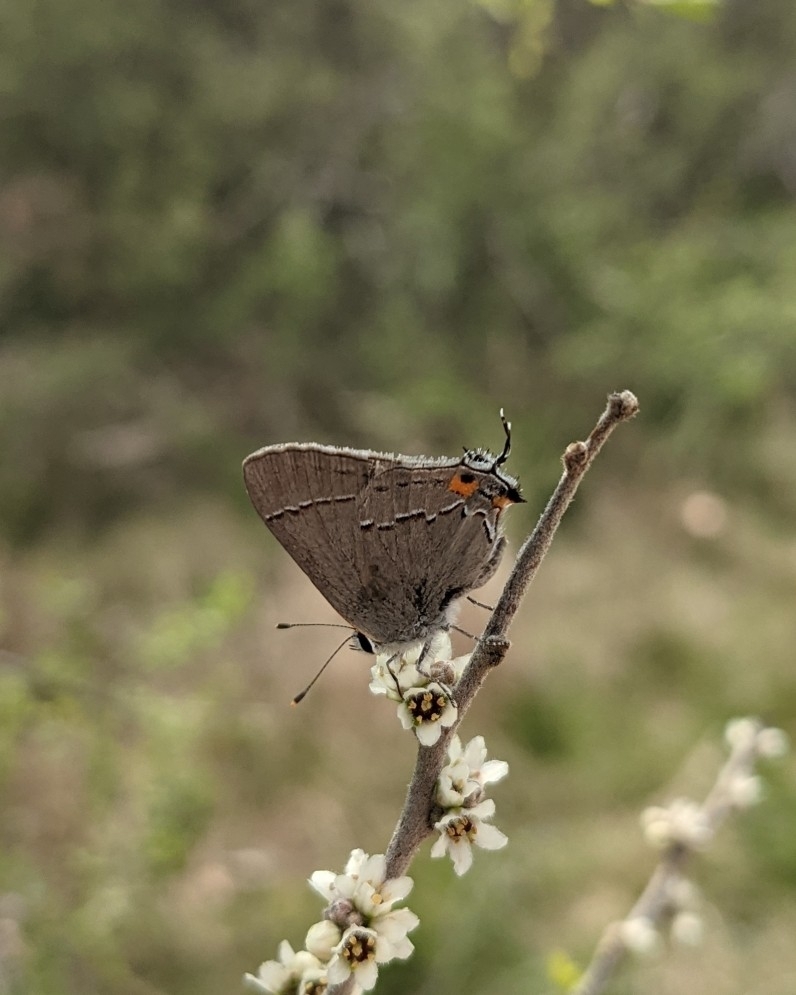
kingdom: Animalia
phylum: Arthropoda
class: Insecta
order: Lepidoptera
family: Lycaenidae
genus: Strymon
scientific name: Strymon melinus
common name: Gray hairstreak
